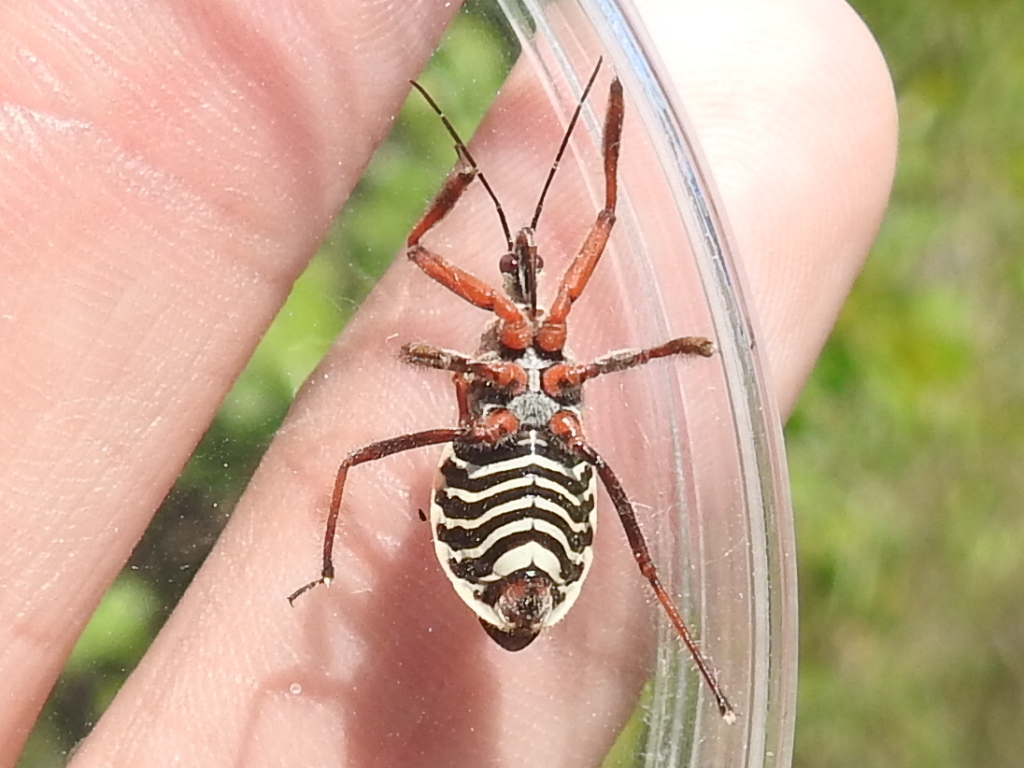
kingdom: Animalia
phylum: Arthropoda
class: Insecta
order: Hemiptera
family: Reduviidae
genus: Apiomerus
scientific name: Apiomerus spissipes
